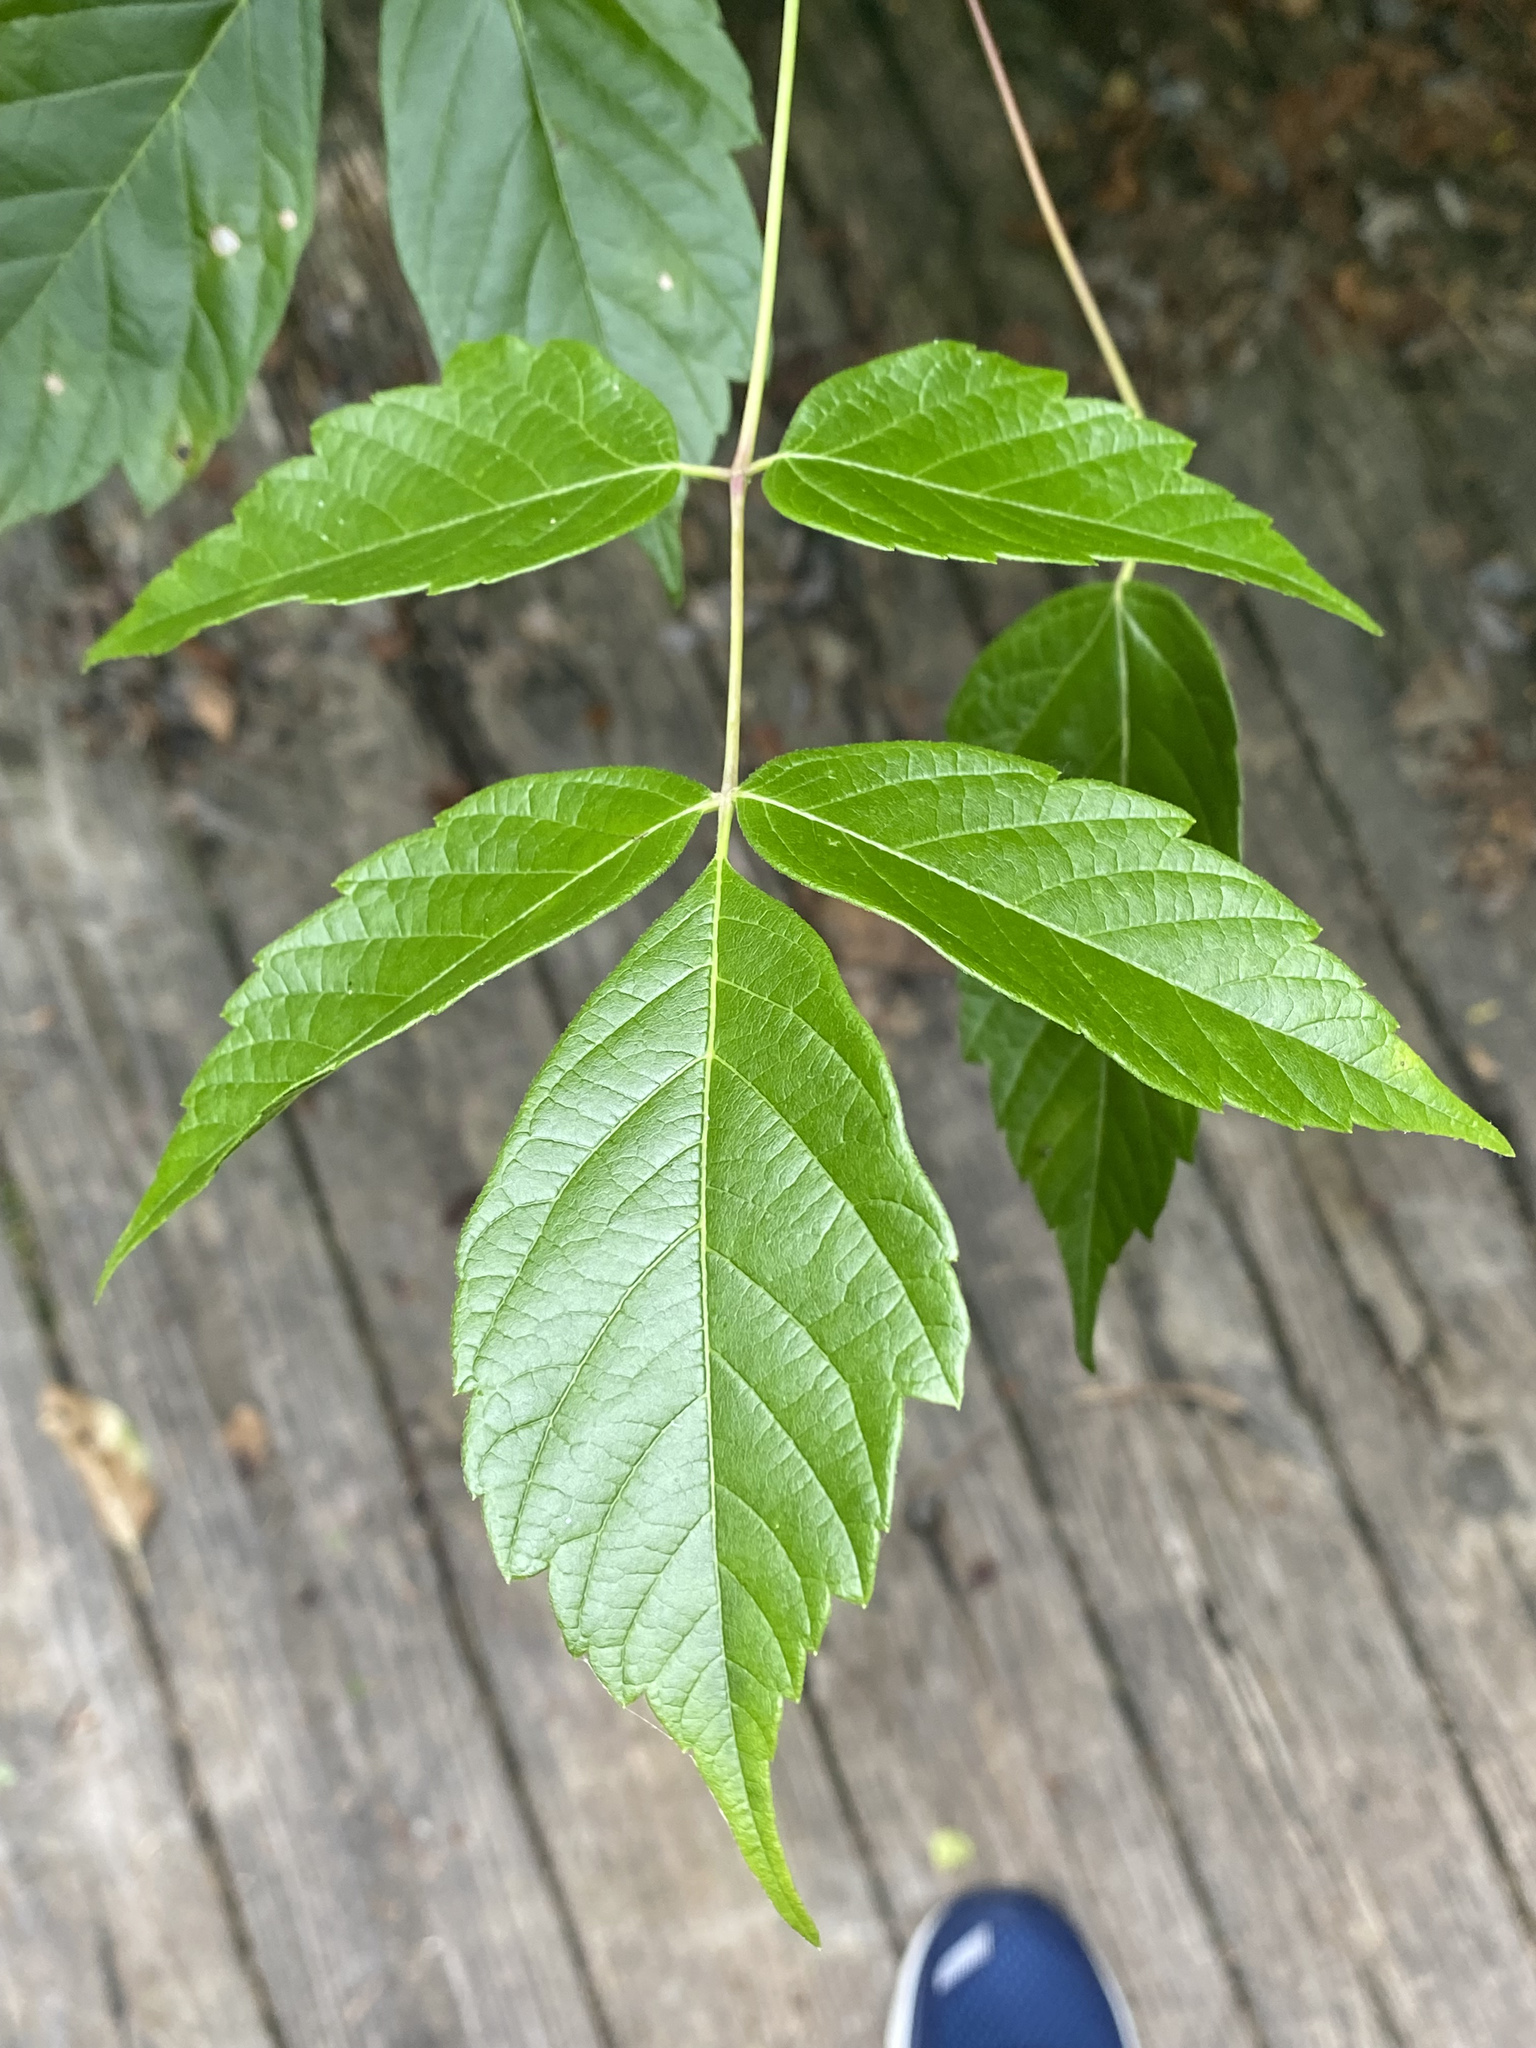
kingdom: Plantae
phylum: Tracheophyta
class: Magnoliopsida
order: Sapindales
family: Sapindaceae
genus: Acer
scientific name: Acer negundo
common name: Ashleaf maple
